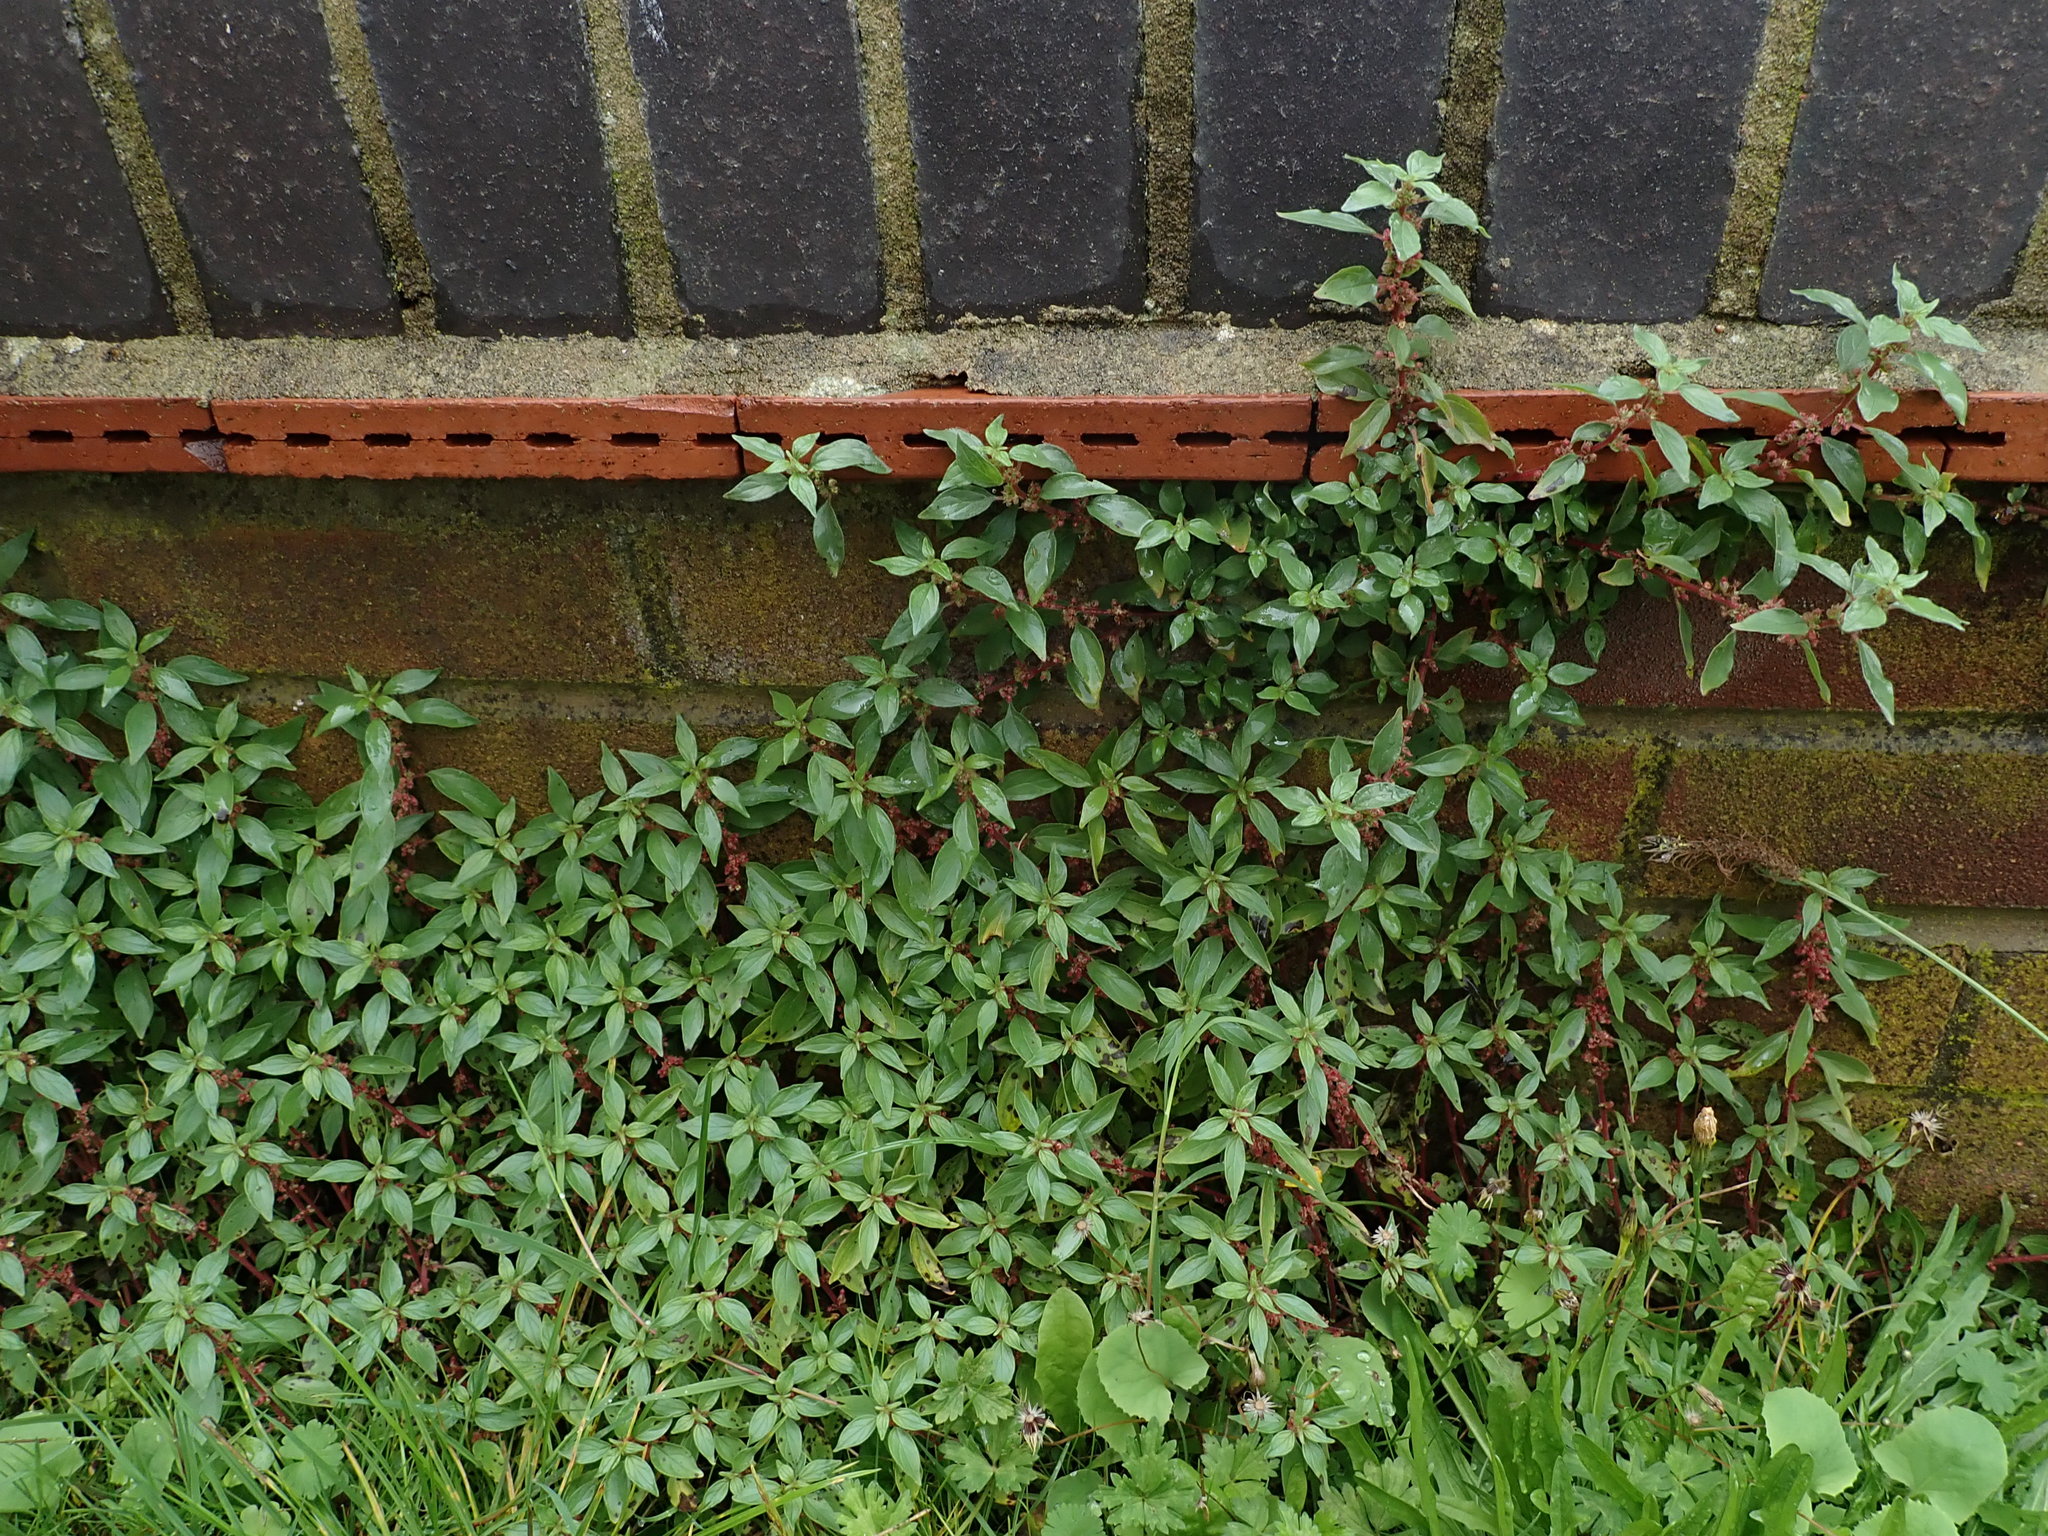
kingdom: Plantae
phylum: Tracheophyta
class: Magnoliopsida
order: Rosales
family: Urticaceae
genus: Parietaria
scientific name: Parietaria judaica
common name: Pellitory-of-the-wall
